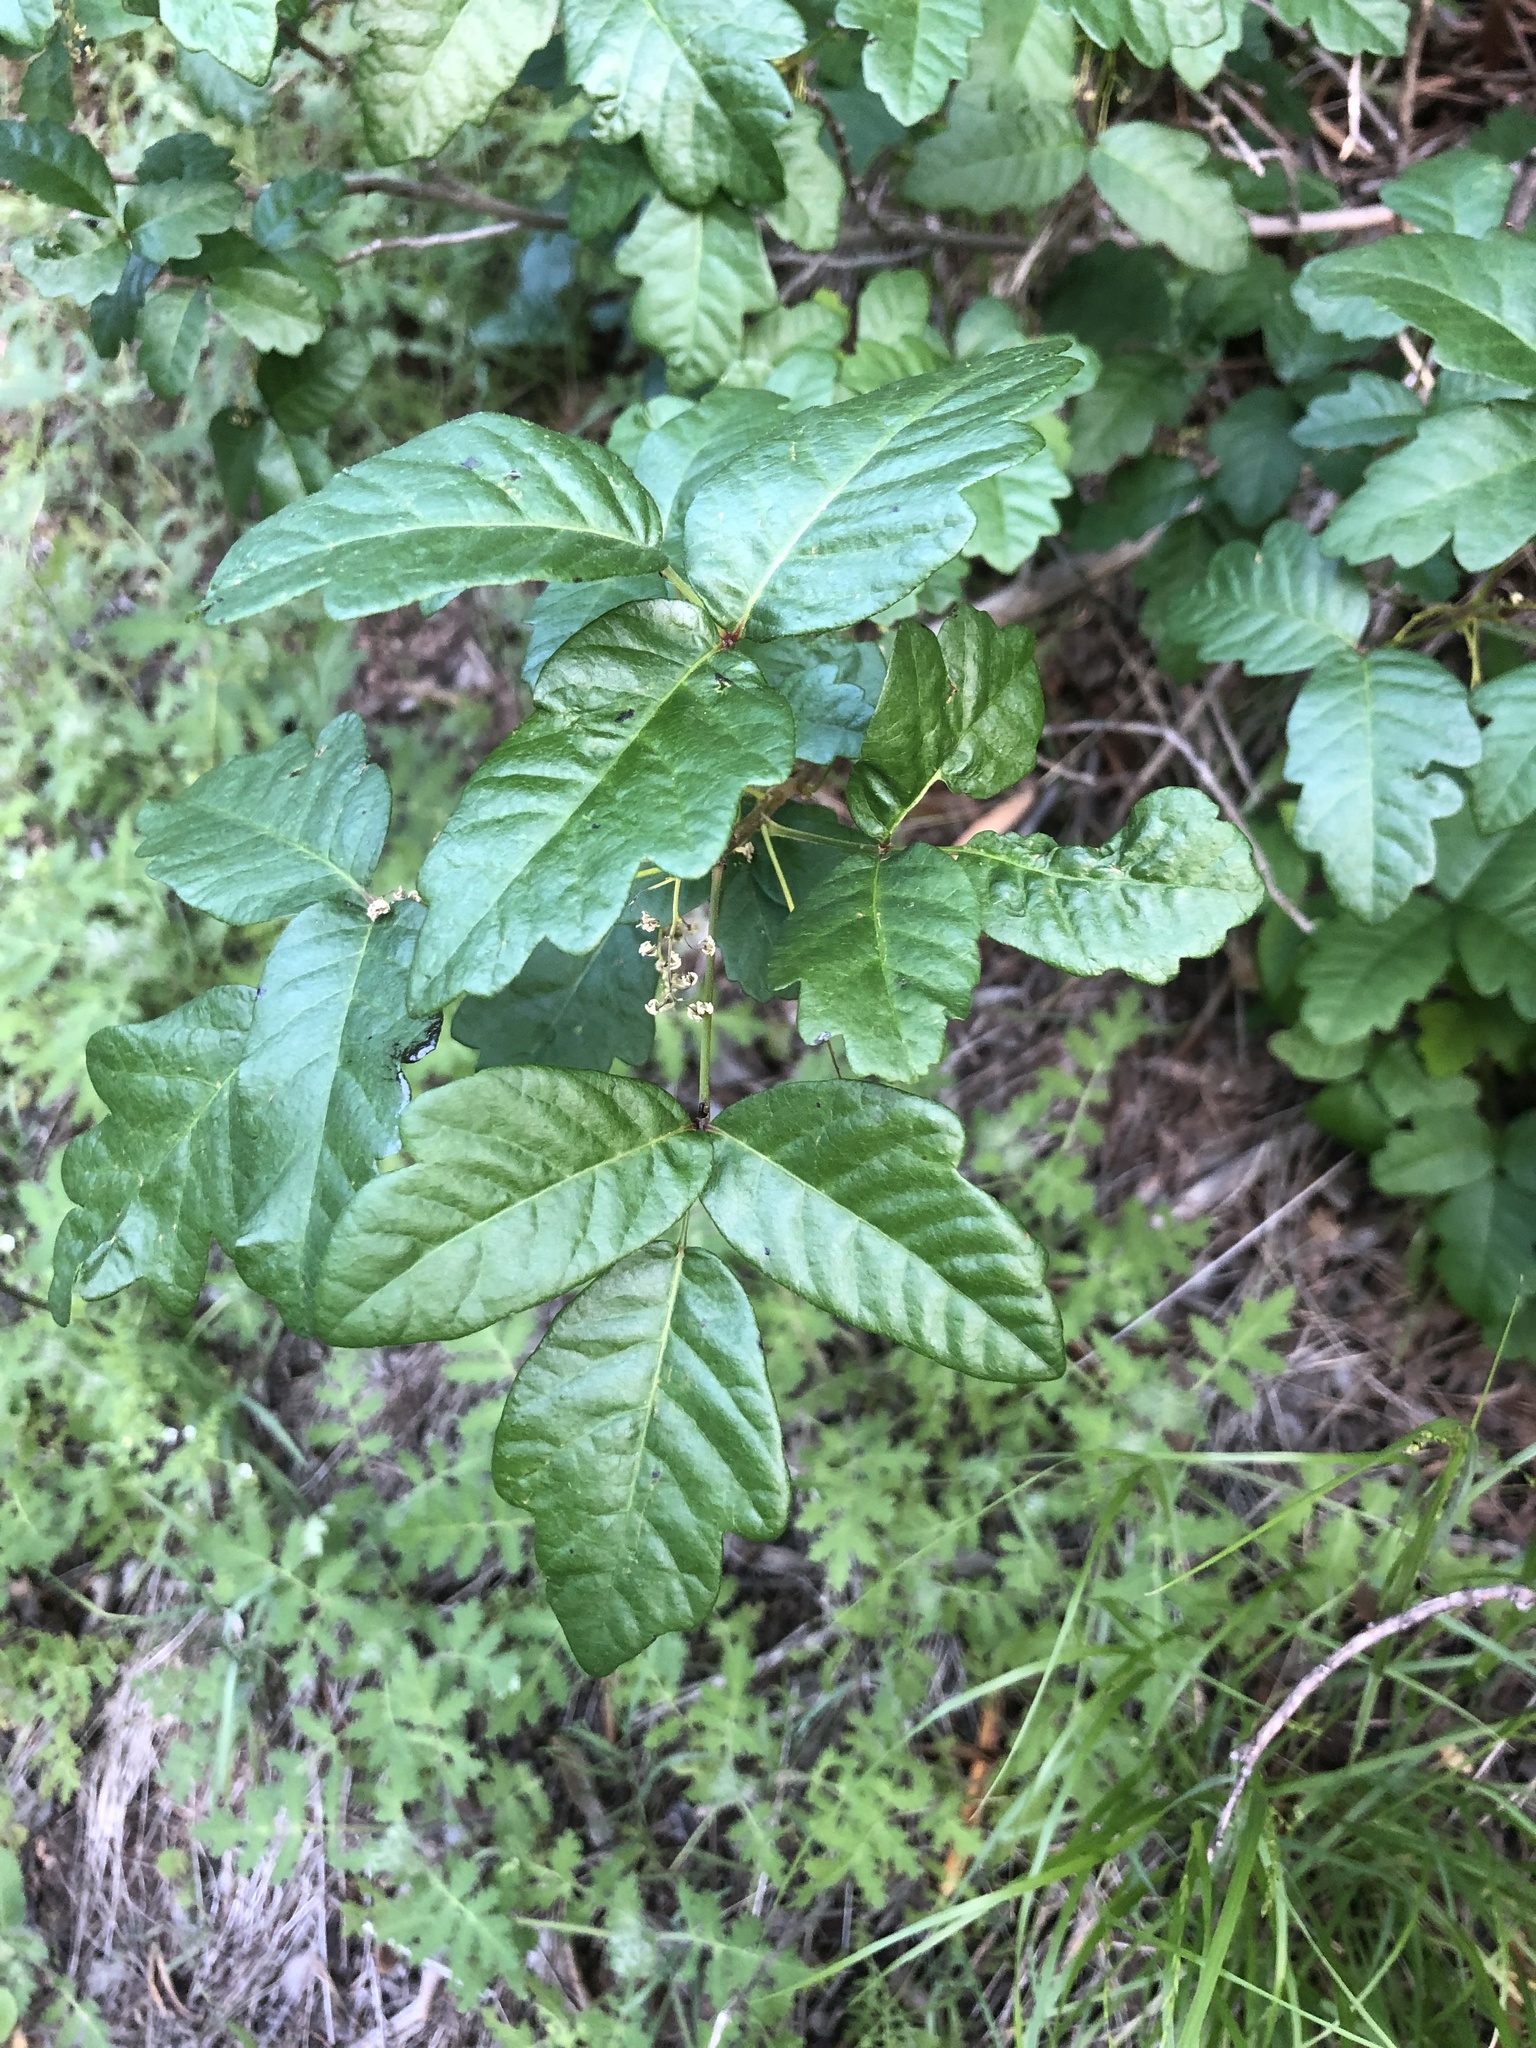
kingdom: Plantae
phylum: Tracheophyta
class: Magnoliopsida
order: Sapindales
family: Anacardiaceae
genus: Toxicodendron
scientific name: Toxicodendron diversilobum
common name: Pacific poison-oak
